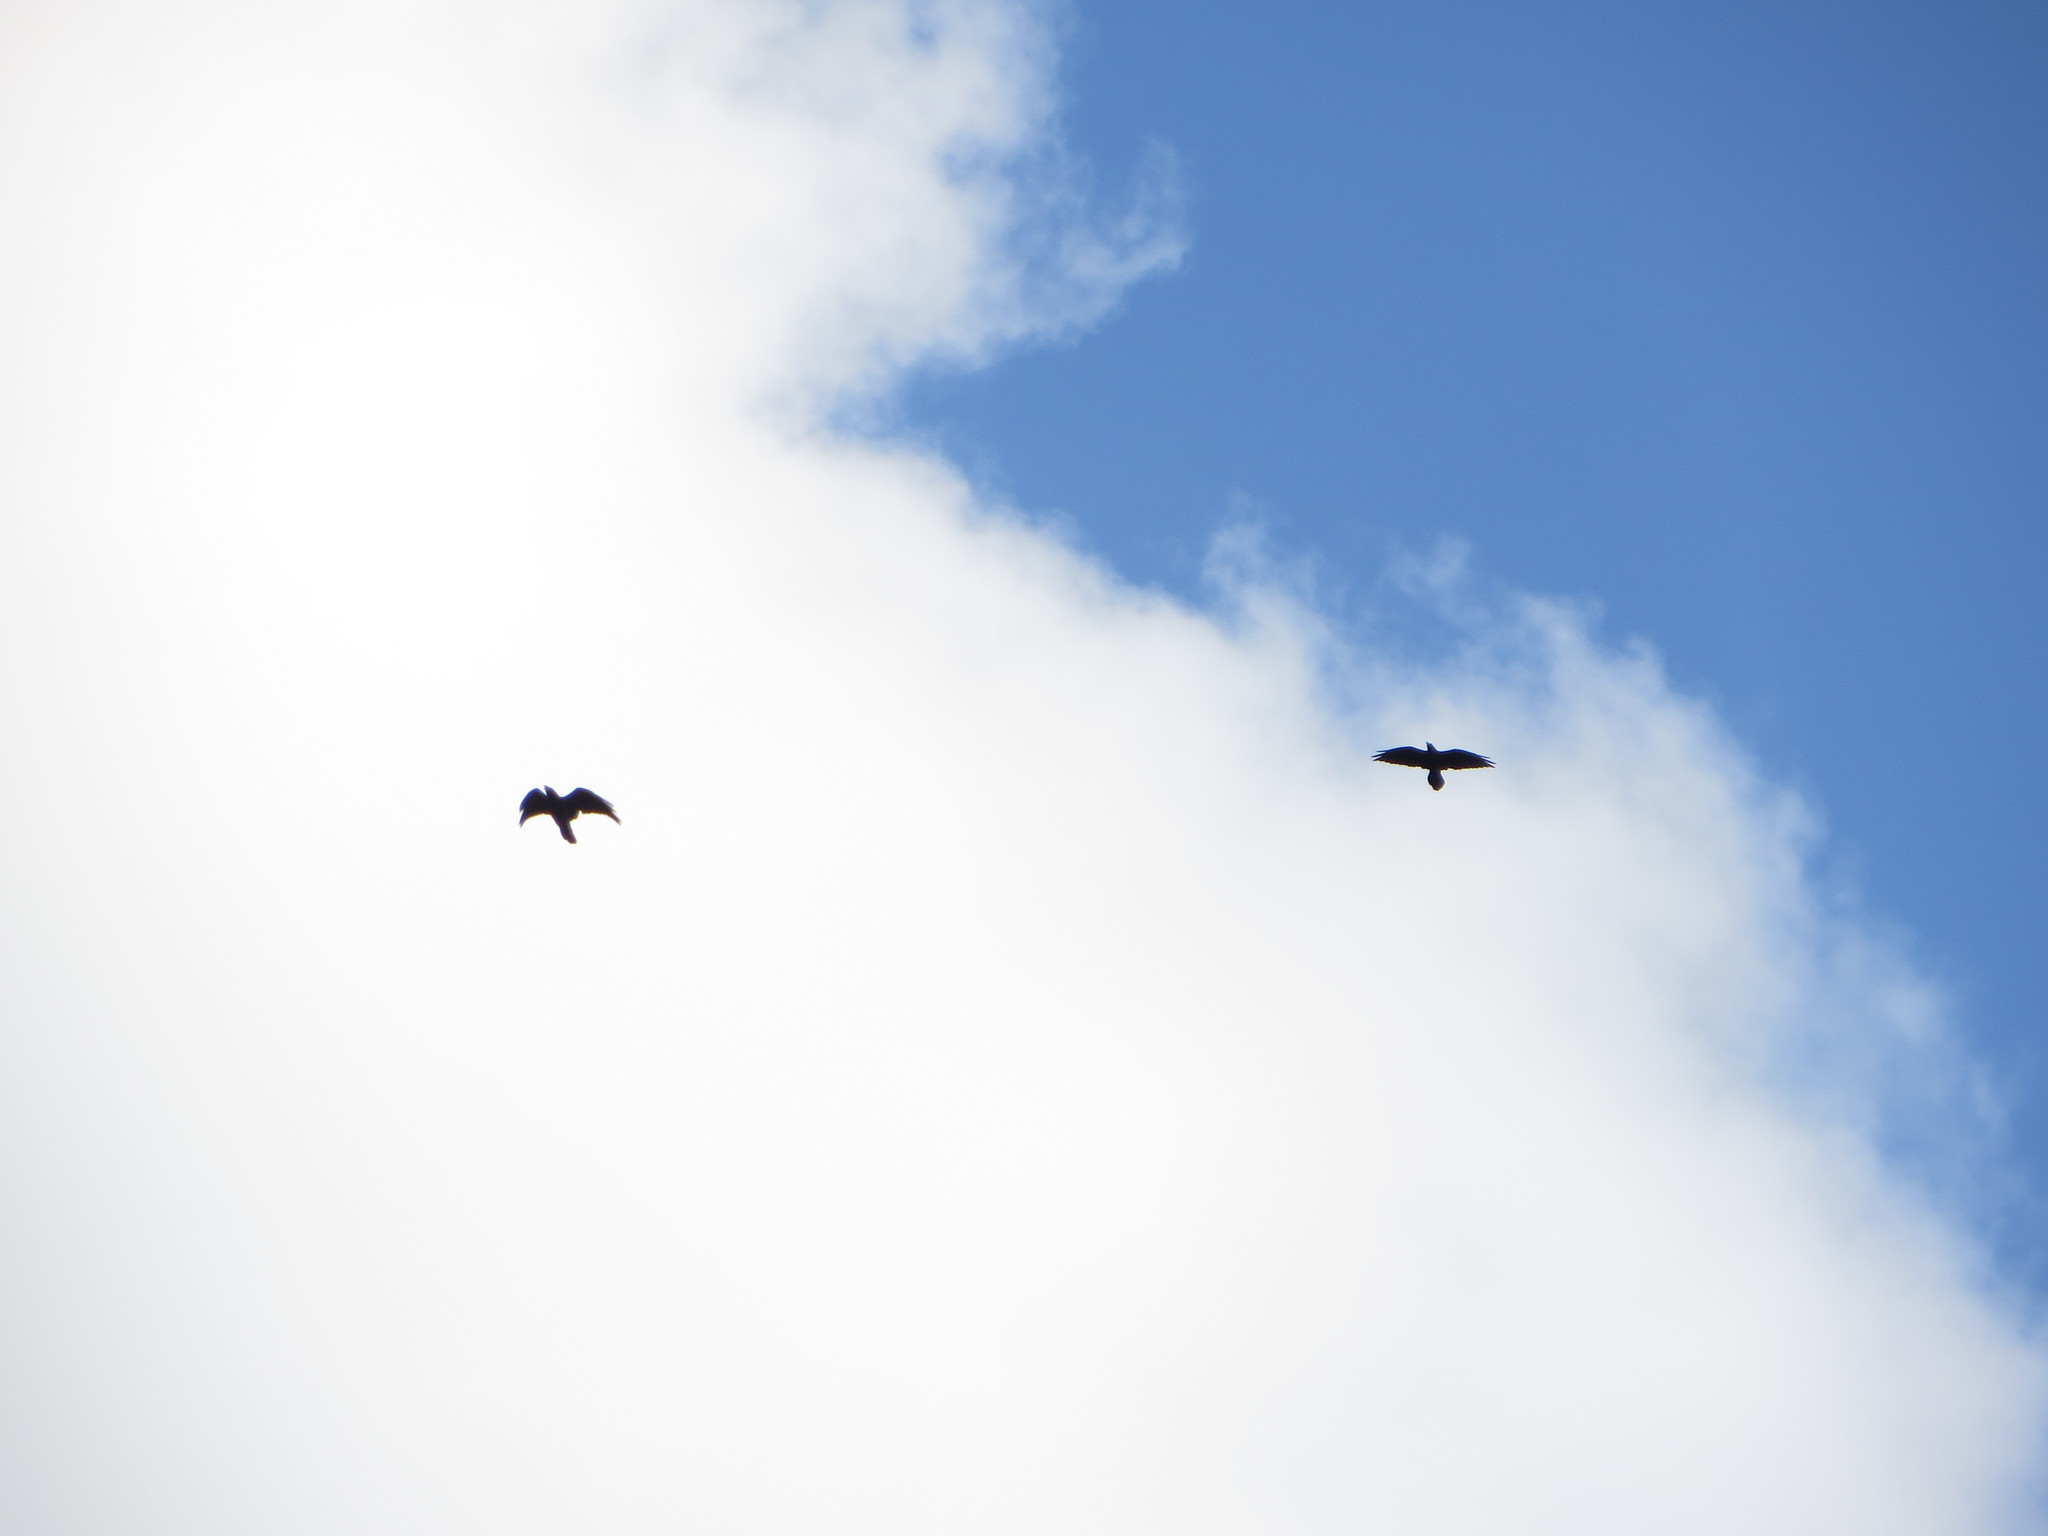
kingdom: Animalia
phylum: Chordata
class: Aves
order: Passeriformes
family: Corvidae
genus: Corvus
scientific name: Corvus corax
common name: Common raven
